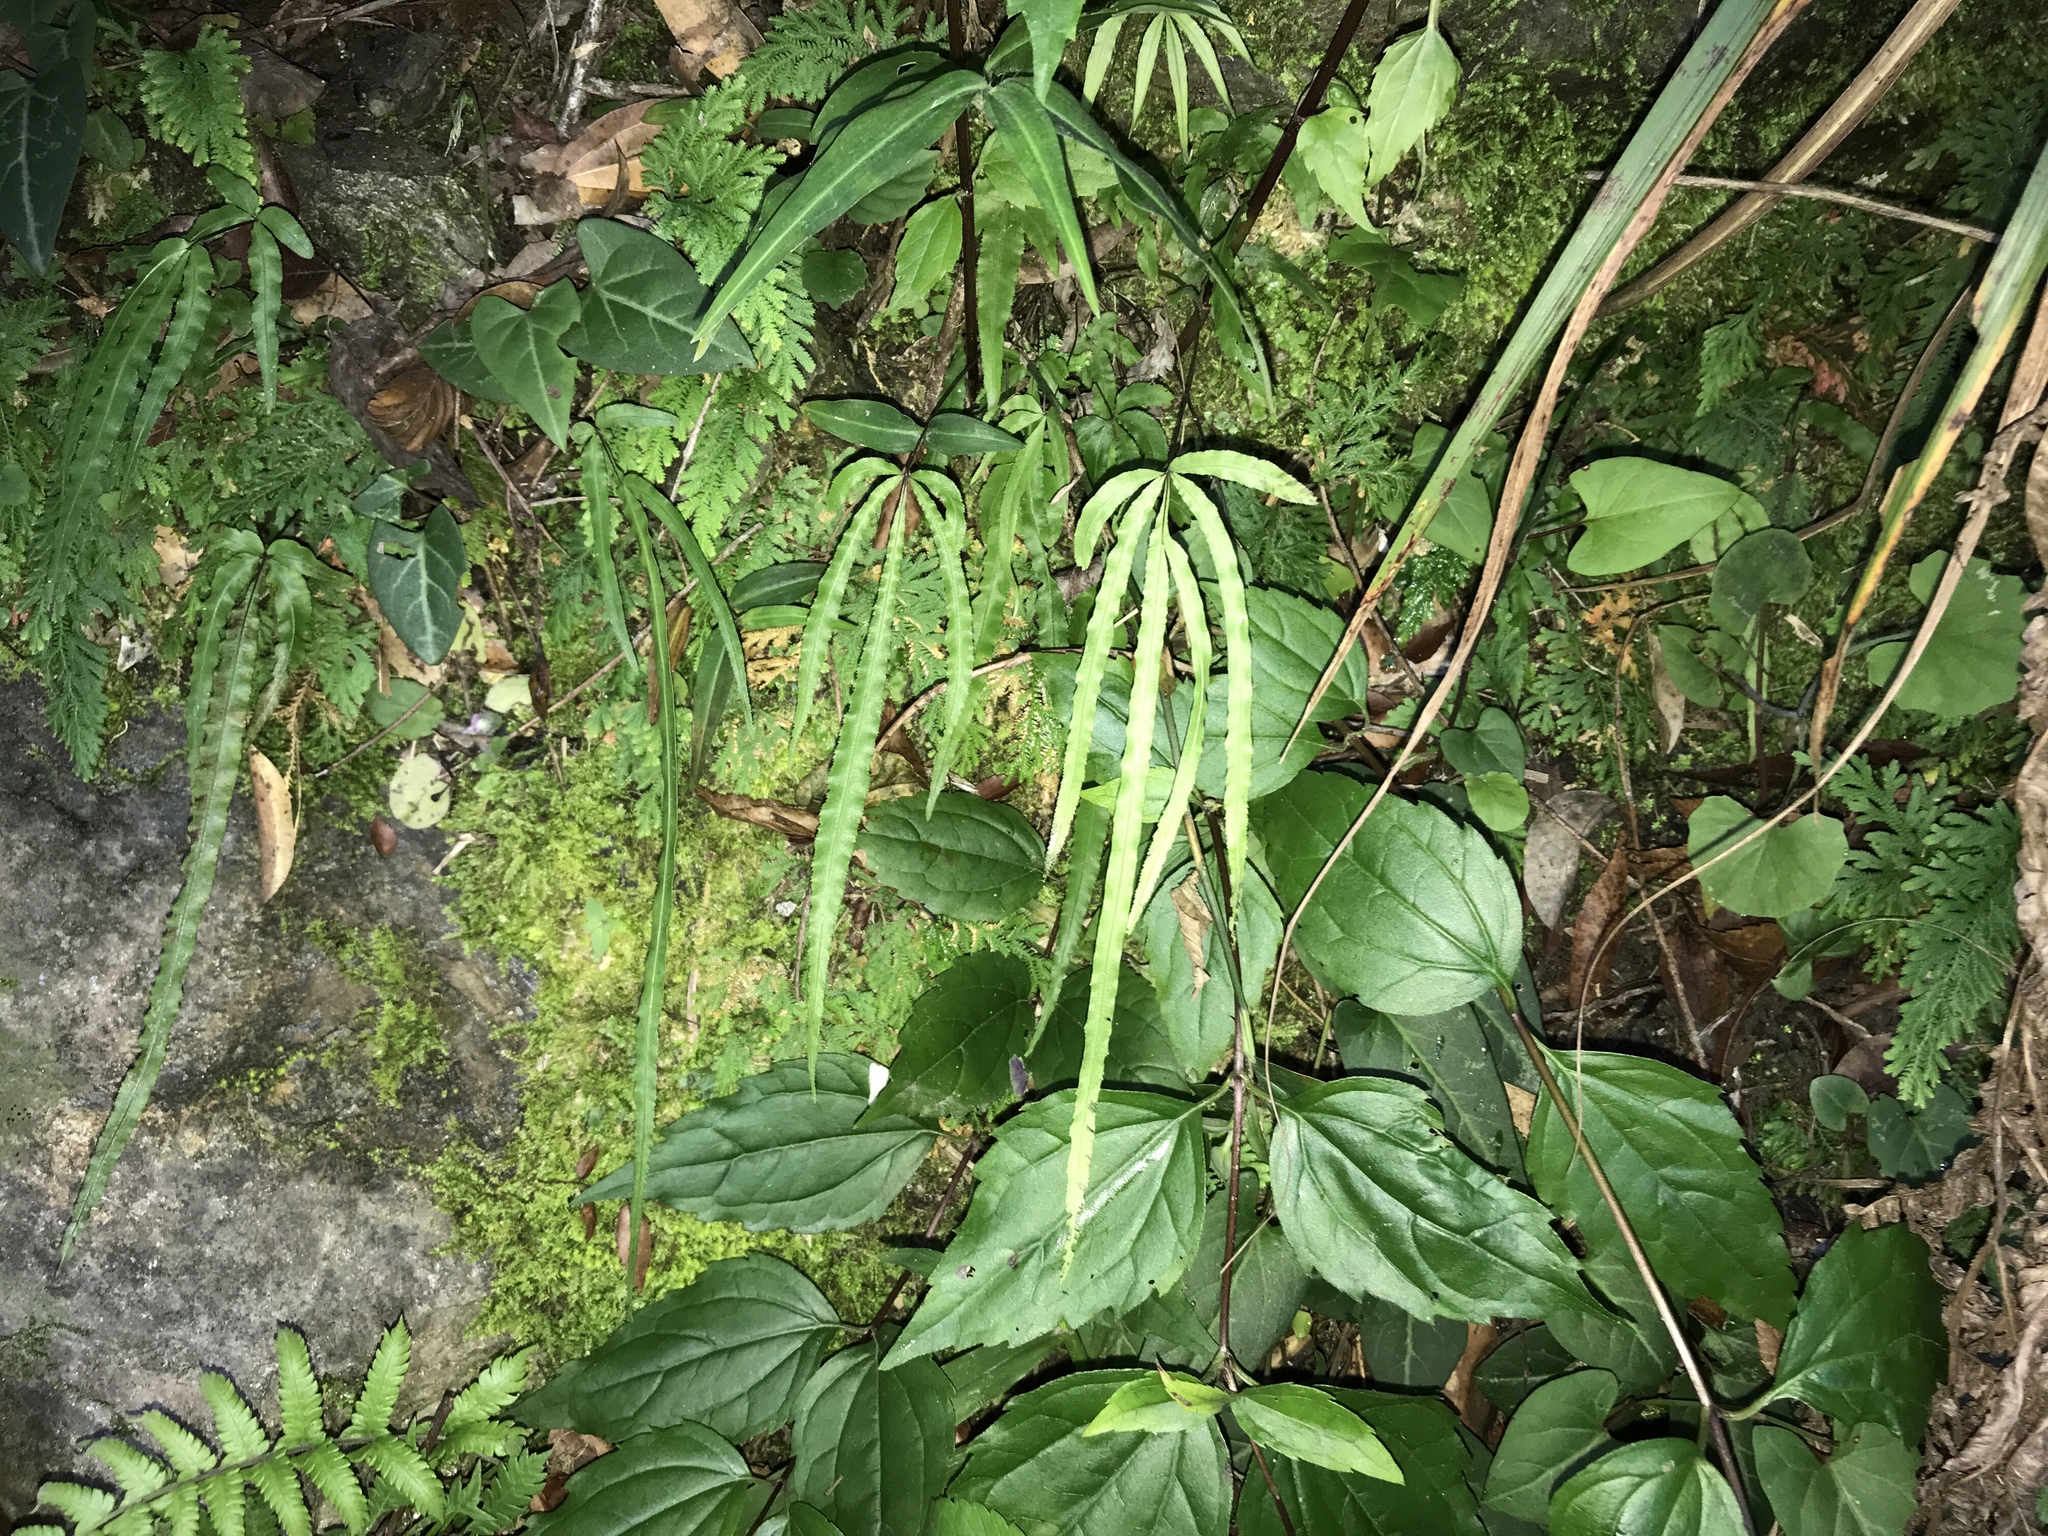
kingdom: Plantae
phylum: Tracheophyta
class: Polypodiopsida
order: Polypodiales
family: Pteridaceae
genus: Pteris
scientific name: Pteris kidoi
